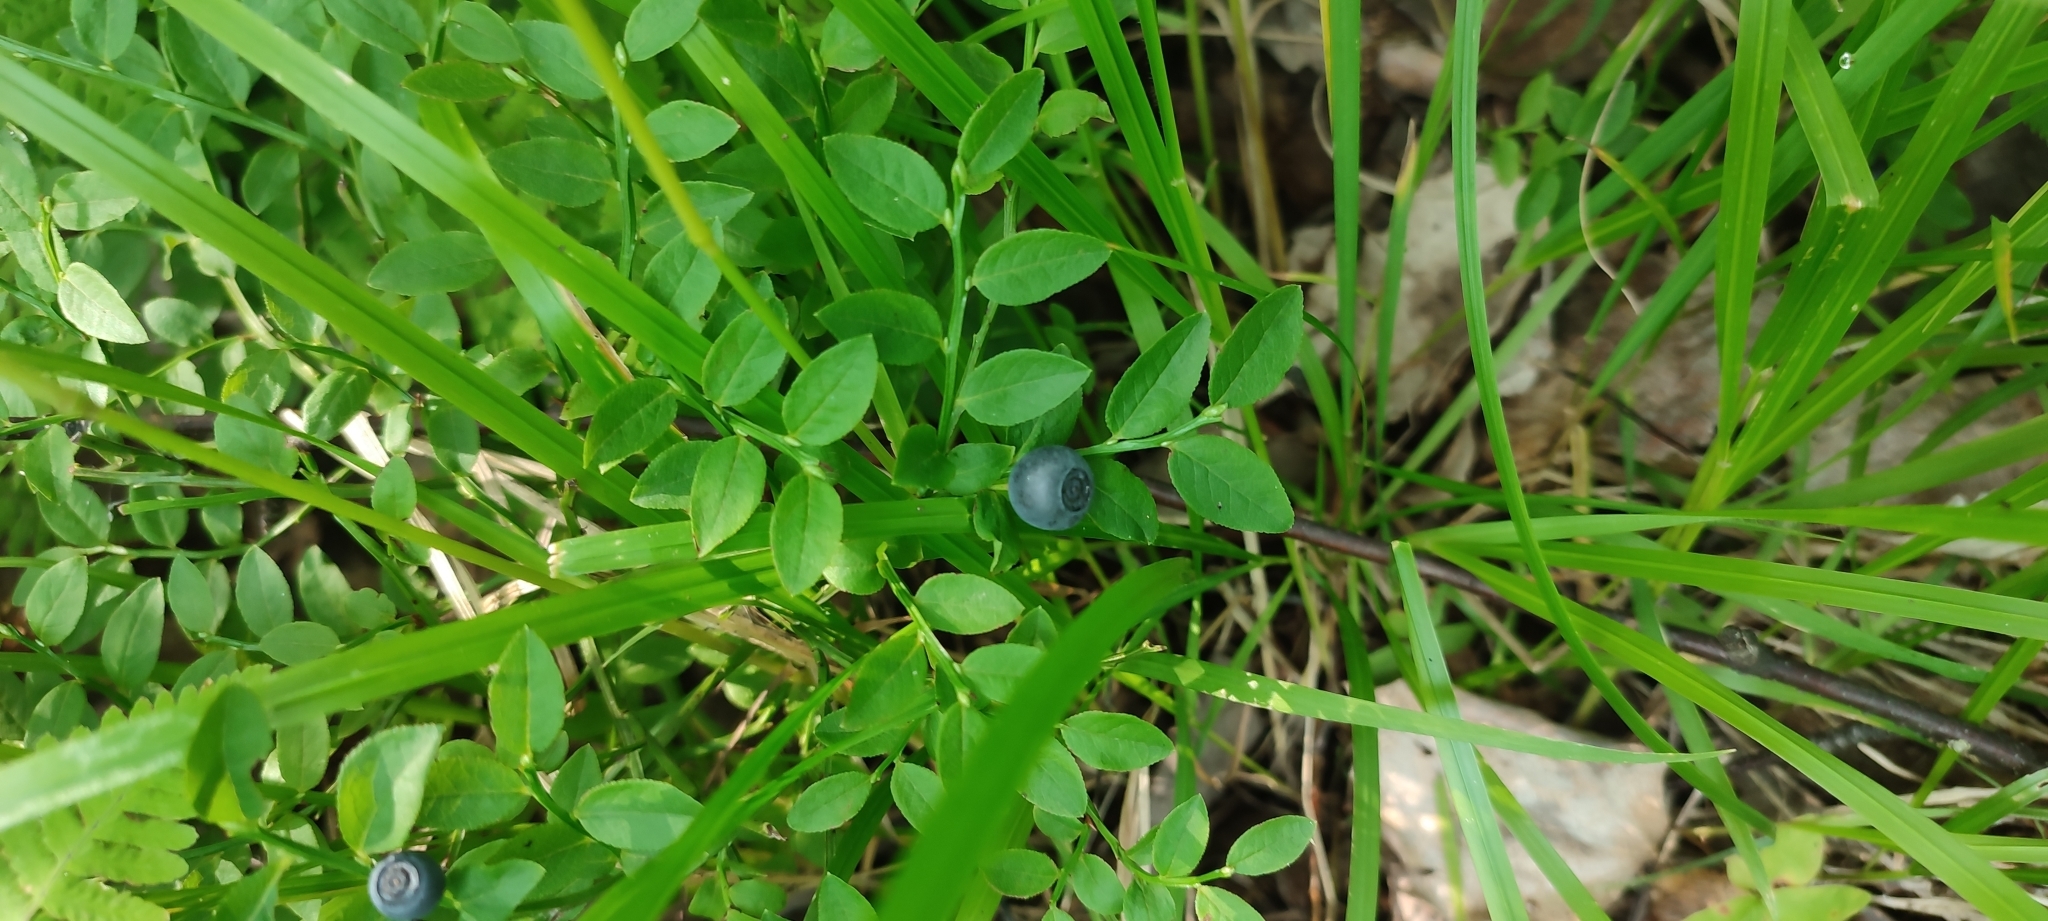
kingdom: Plantae
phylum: Tracheophyta
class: Magnoliopsida
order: Ericales
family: Ericaceae
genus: Vaccinium
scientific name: Vaccinium myrtillus
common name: Bilberry
